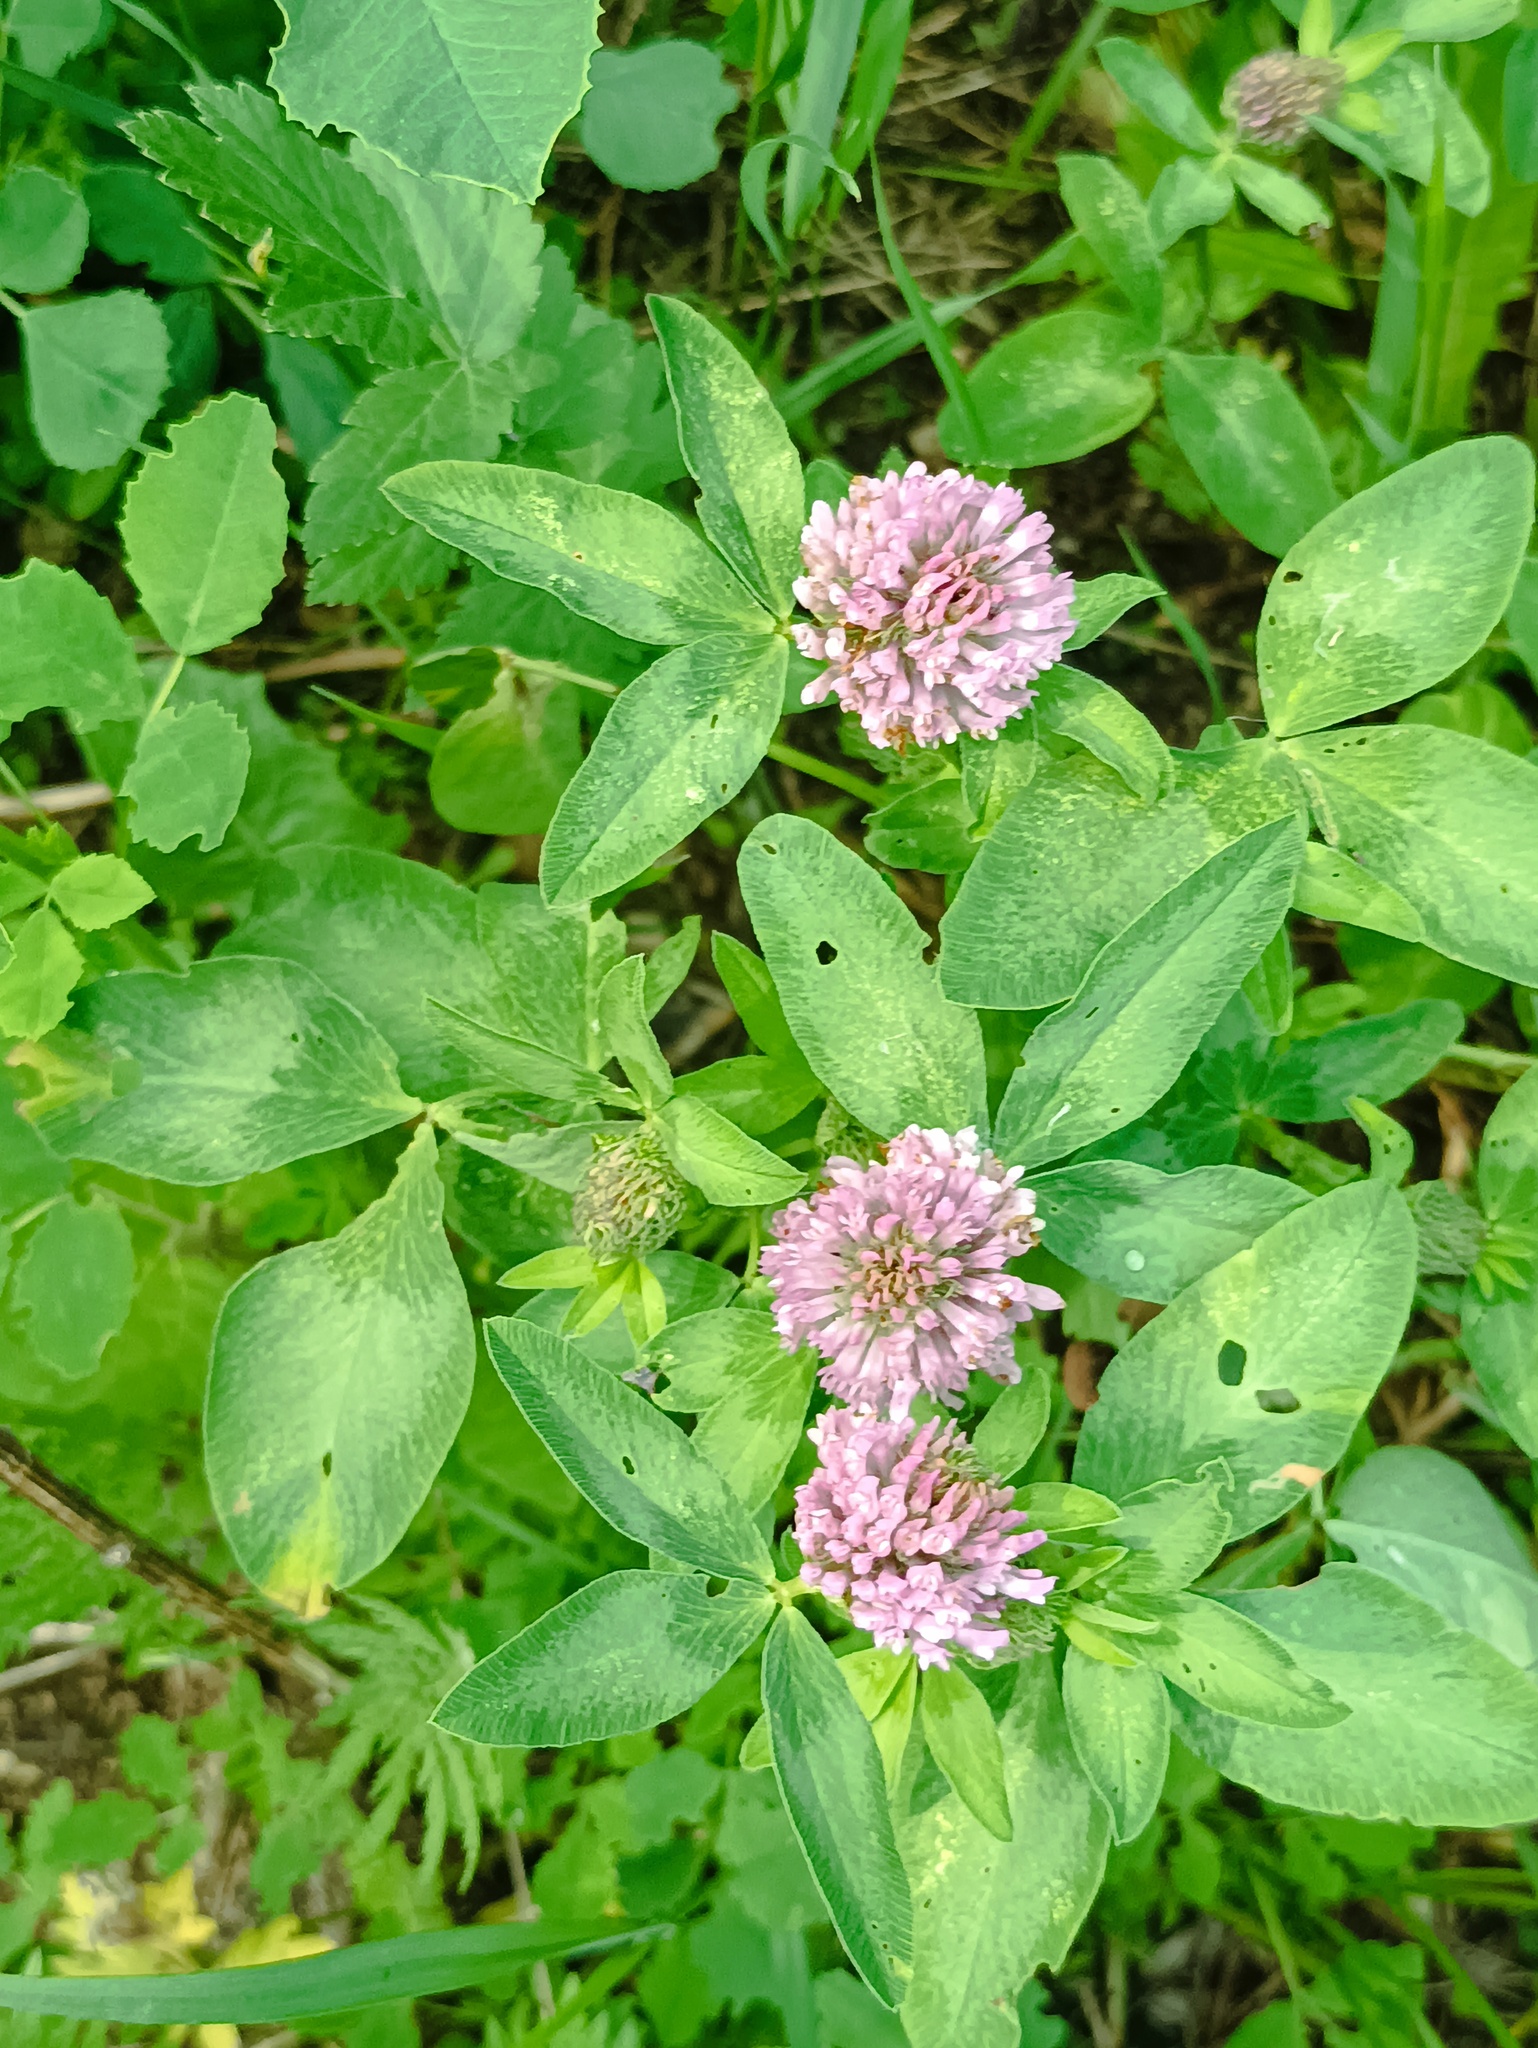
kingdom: Plantae
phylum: Tracheophyta
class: Magnoliopsida
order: Fabales
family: Fabaceae
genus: Trifolium
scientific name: Trifolium pratense
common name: Red clover
